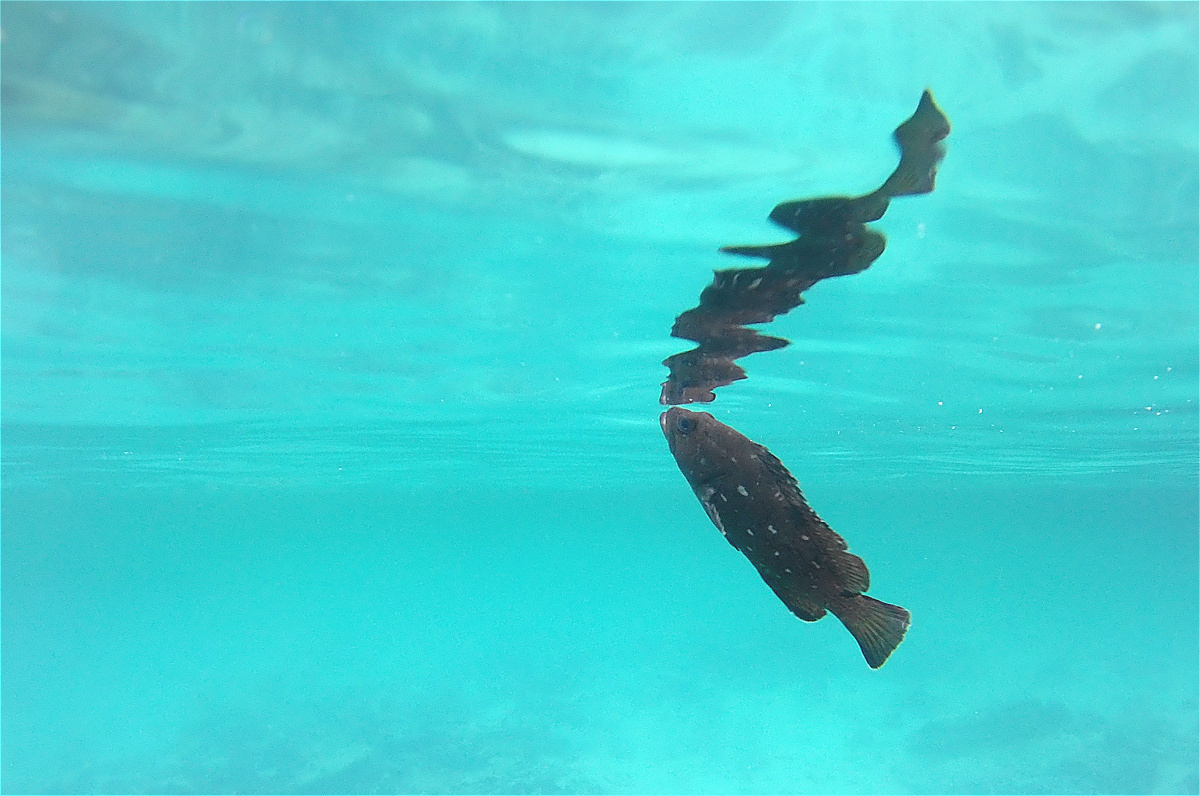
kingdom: Animalia
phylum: Chordata
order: Perciformes
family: Serranidae
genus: Epinephelus
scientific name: Epinephelus labriformis
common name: Flag cabrilla
